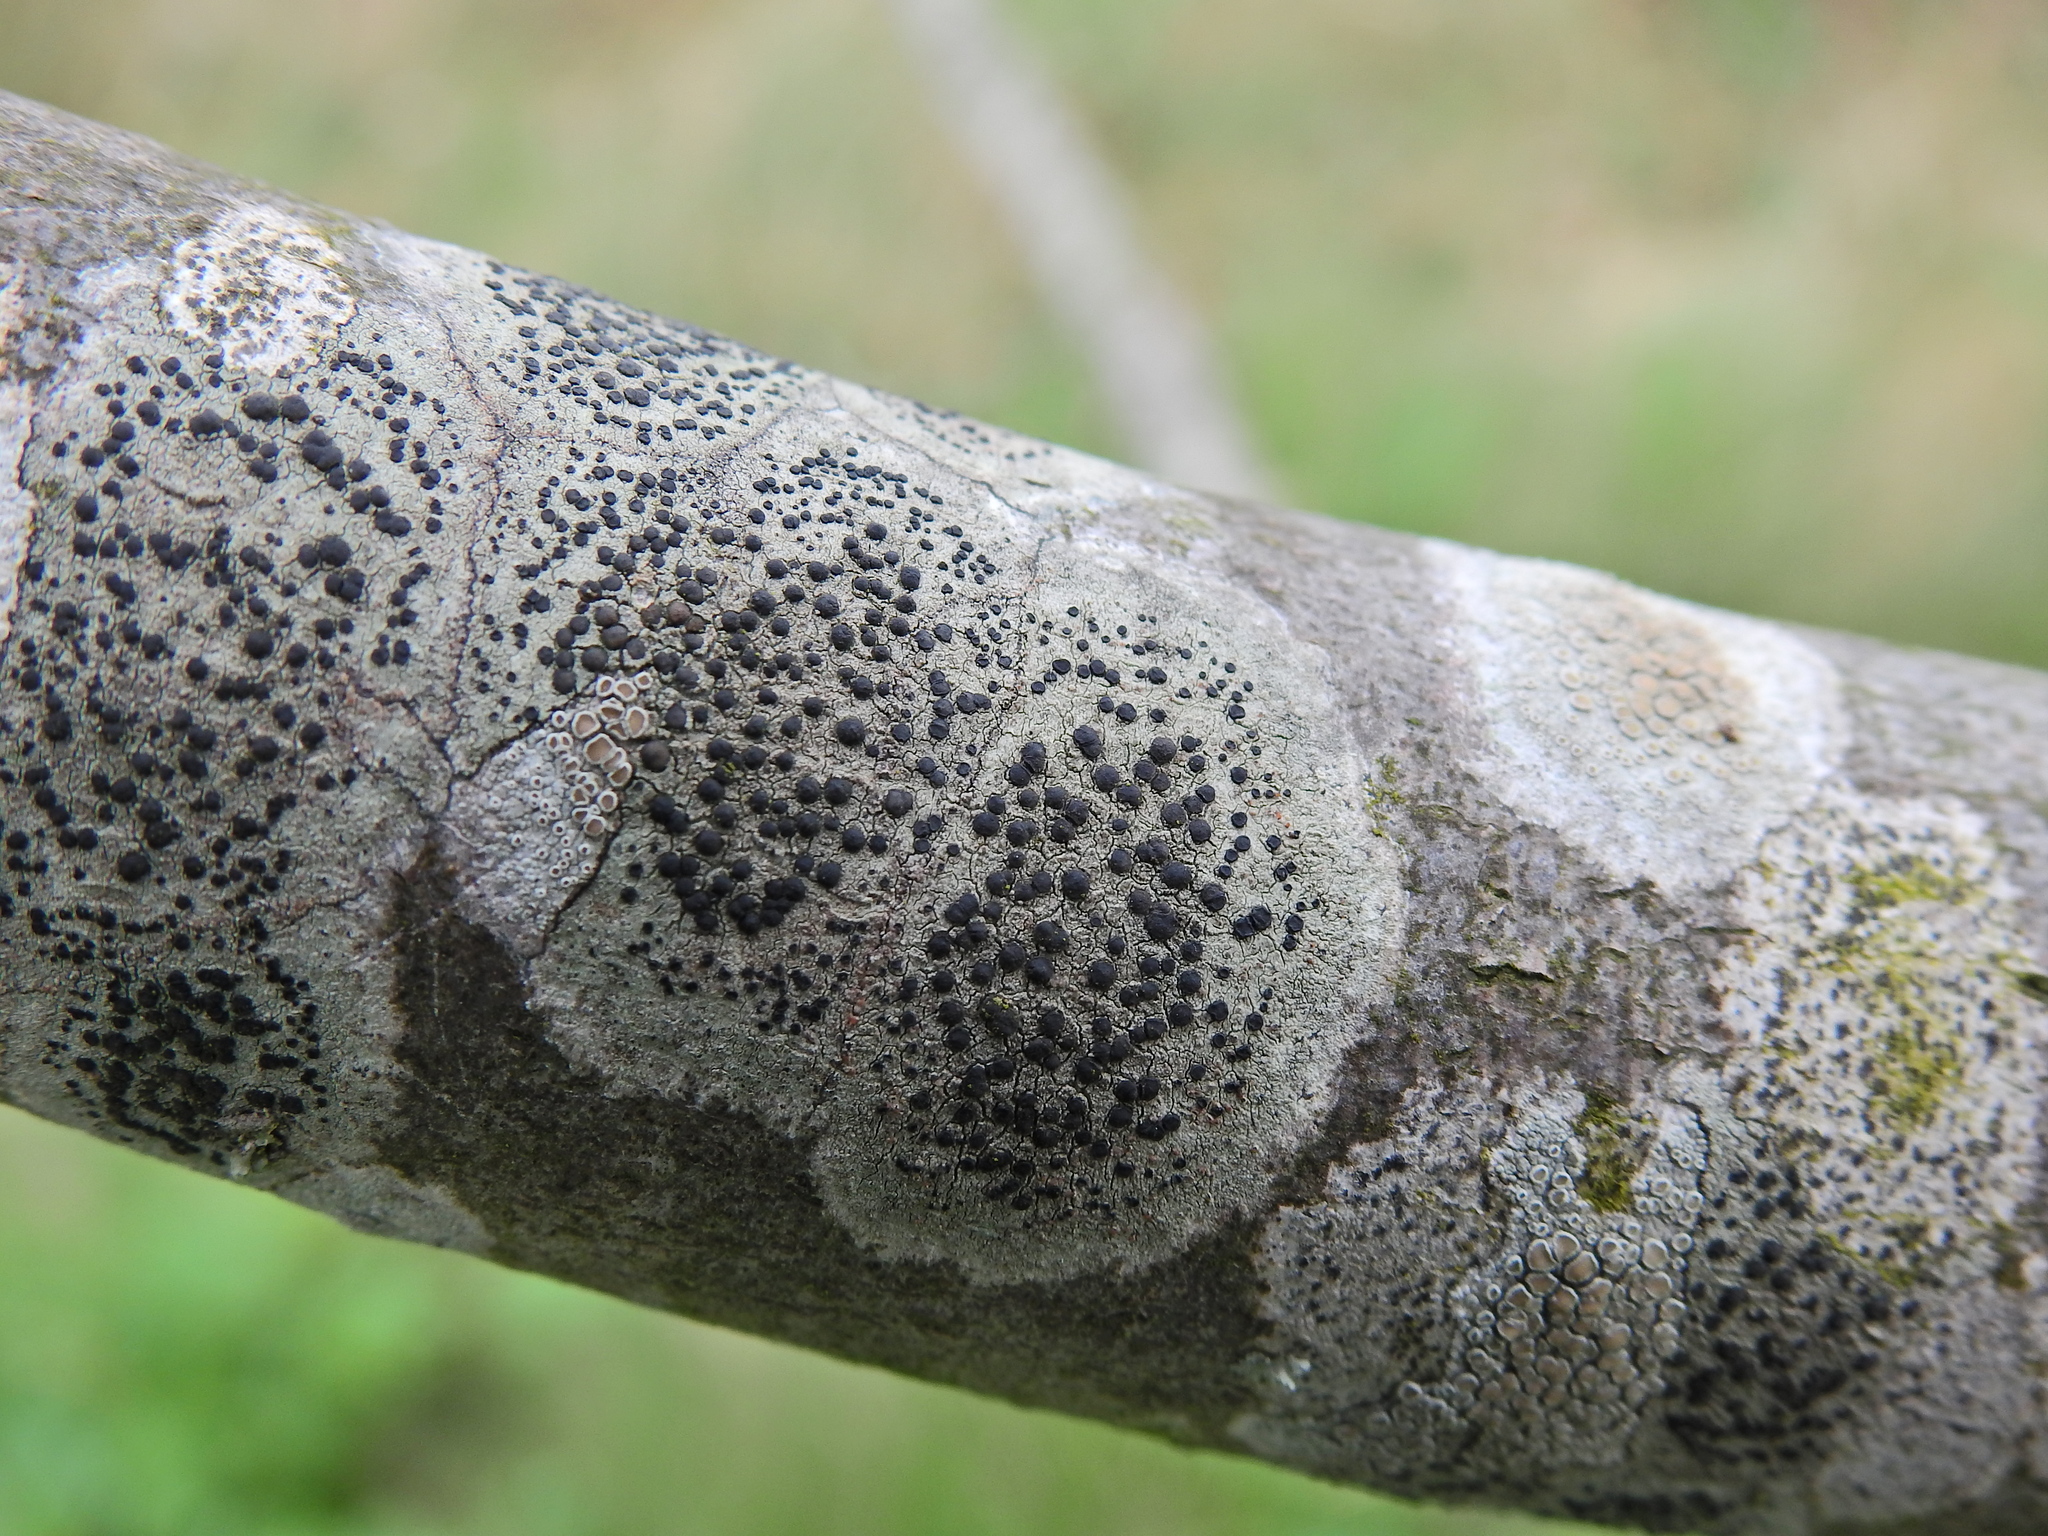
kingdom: Fungi
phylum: Ascomycota
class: Lecanoromycetes
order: Lecanorales
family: Lecanoraceae
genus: Lecidella
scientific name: Lecidella elaeochroma
